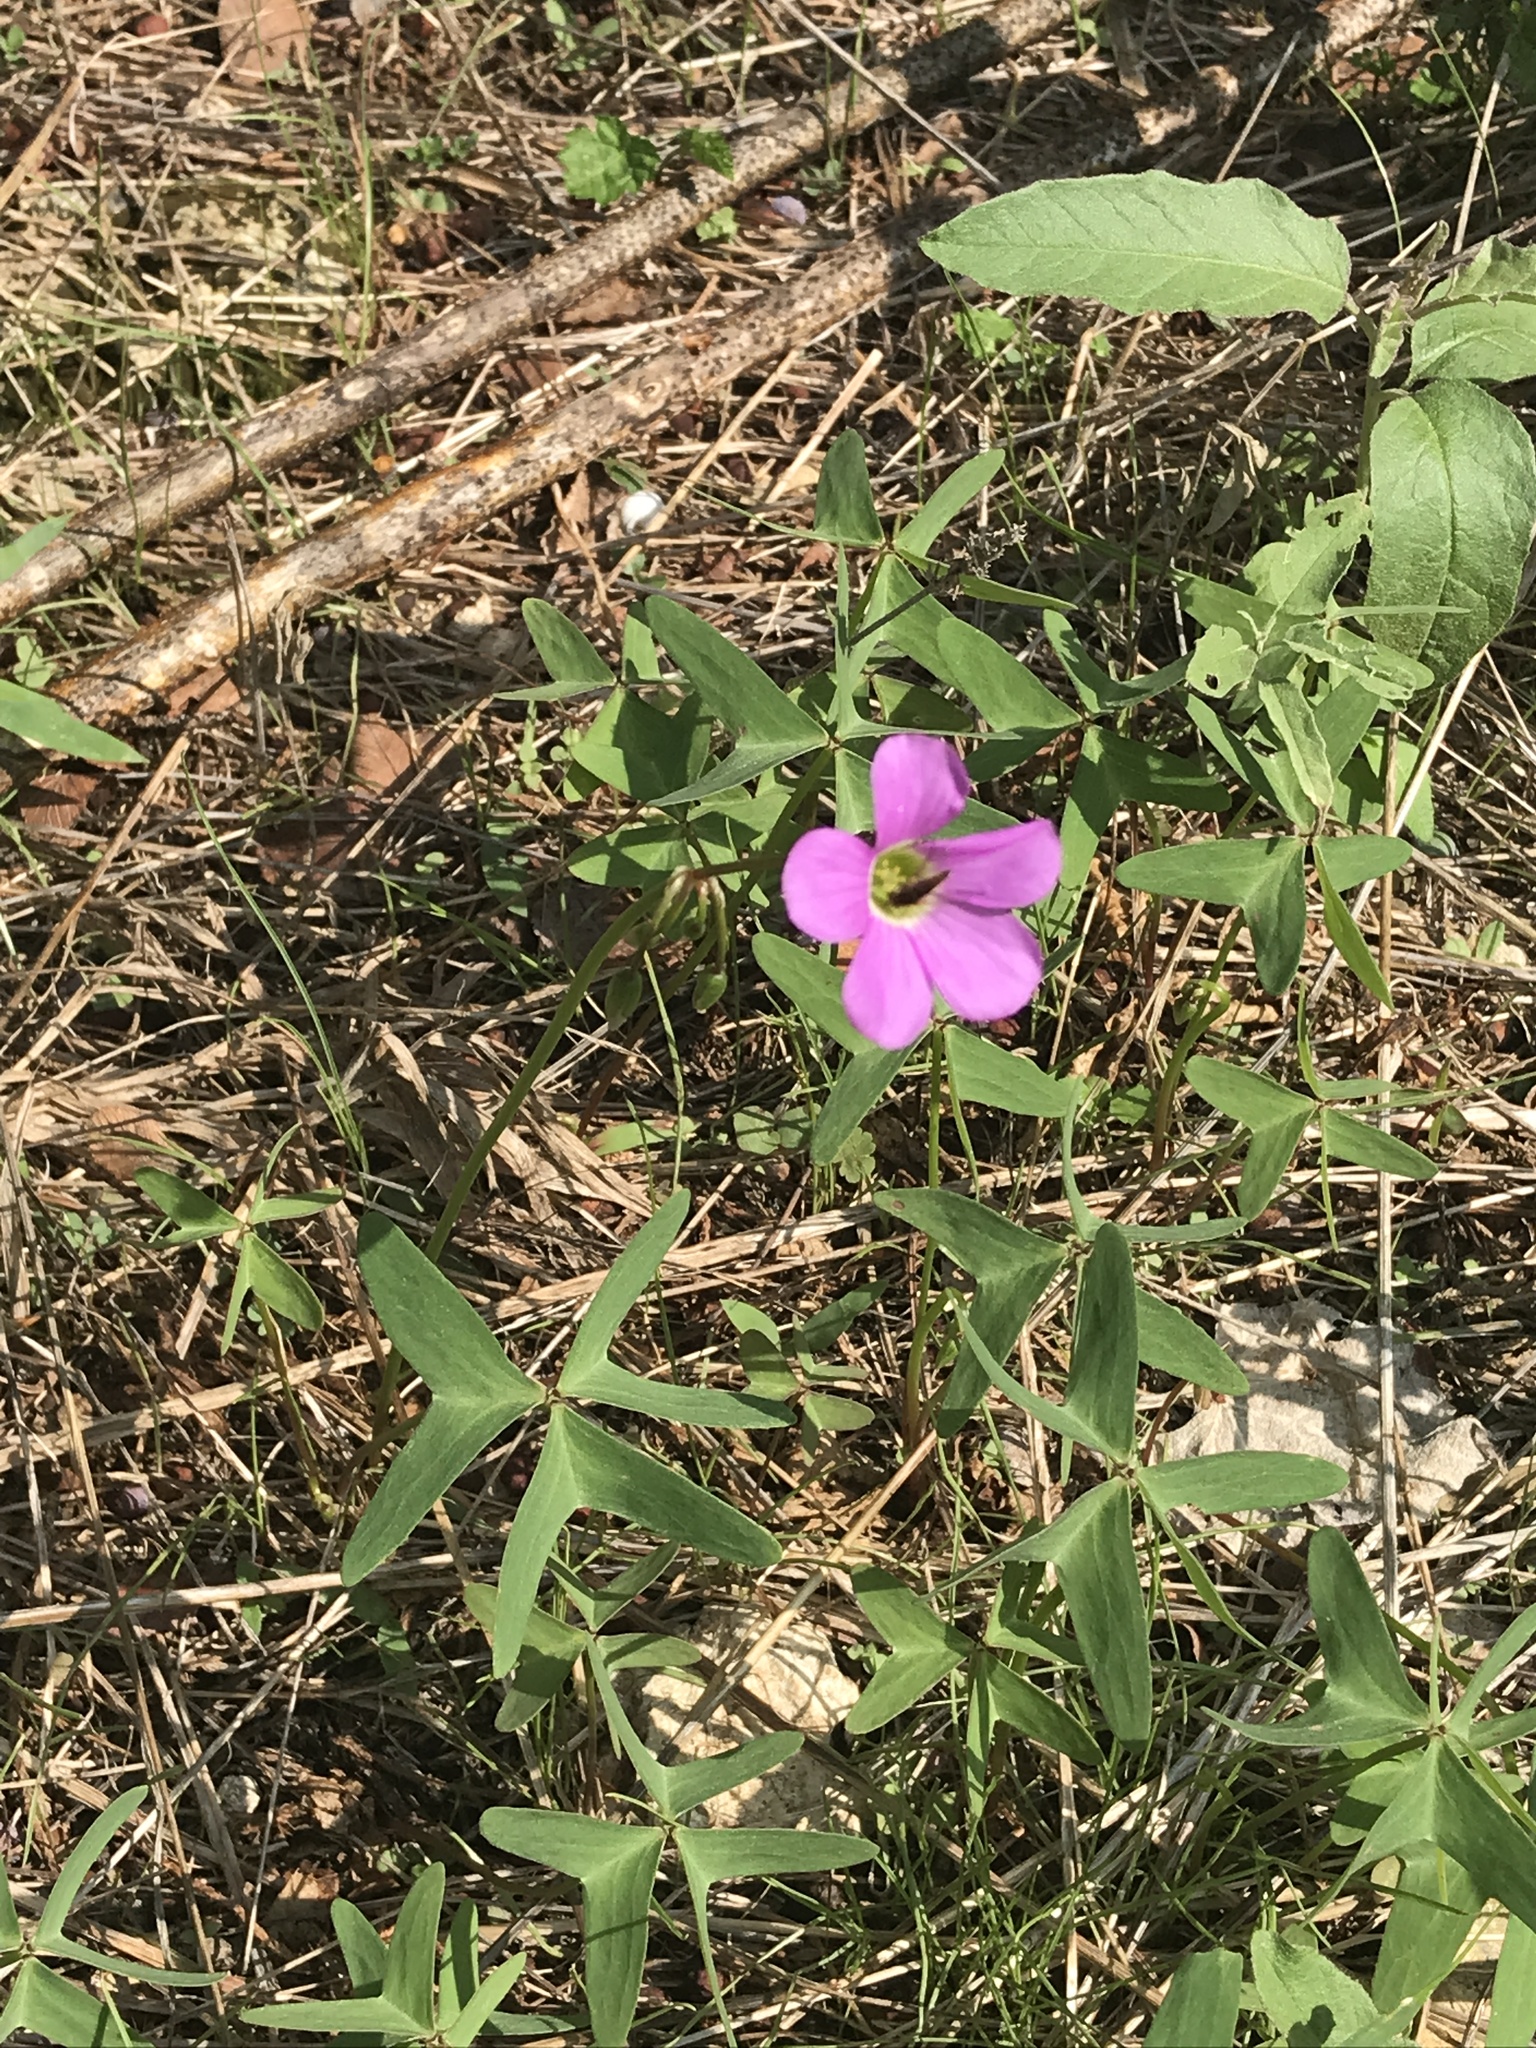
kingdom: Plantae
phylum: Tracheophyta
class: Magnoliopsida
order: Oxalidales
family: Oxalidaceae
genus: Oxalis
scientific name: Oxalis drummondii
